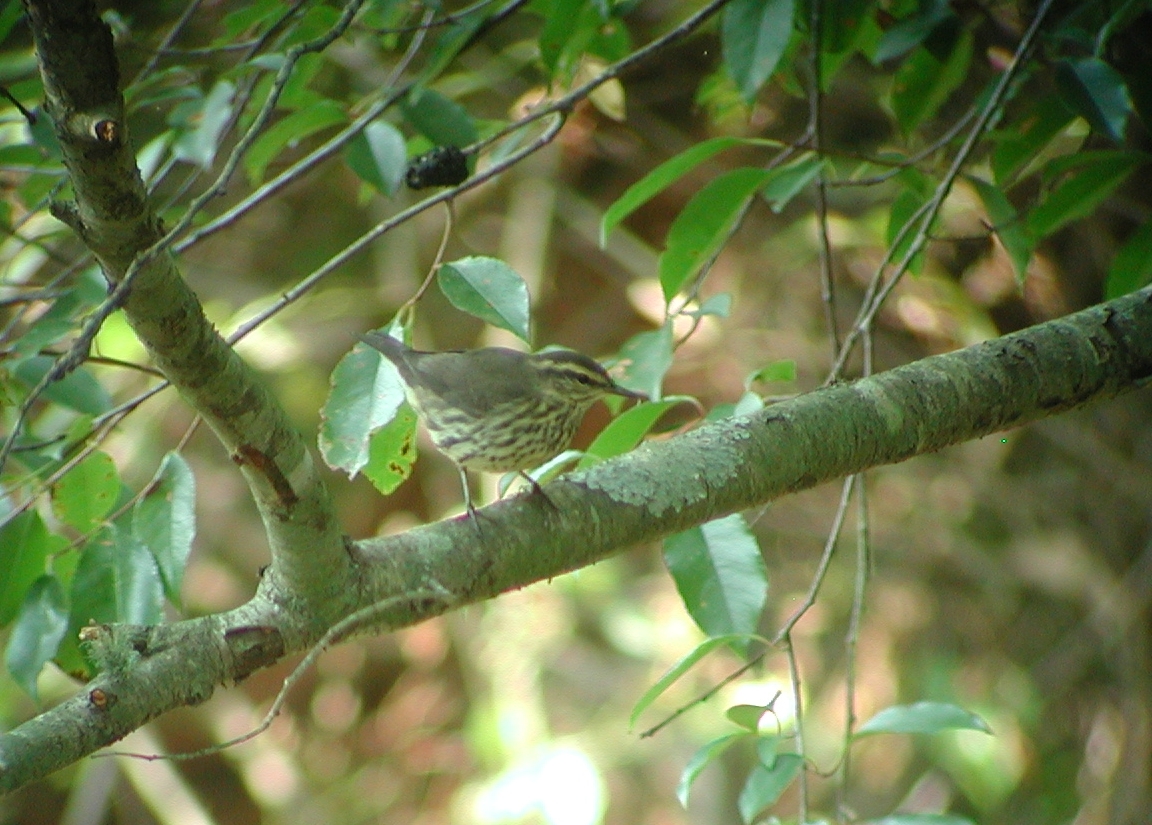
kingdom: Animalia
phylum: Chordata
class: Aves
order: Passeriformes
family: Parulidae
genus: Parkesia
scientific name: Parkesia noveboracensis
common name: Northern waterthrush
